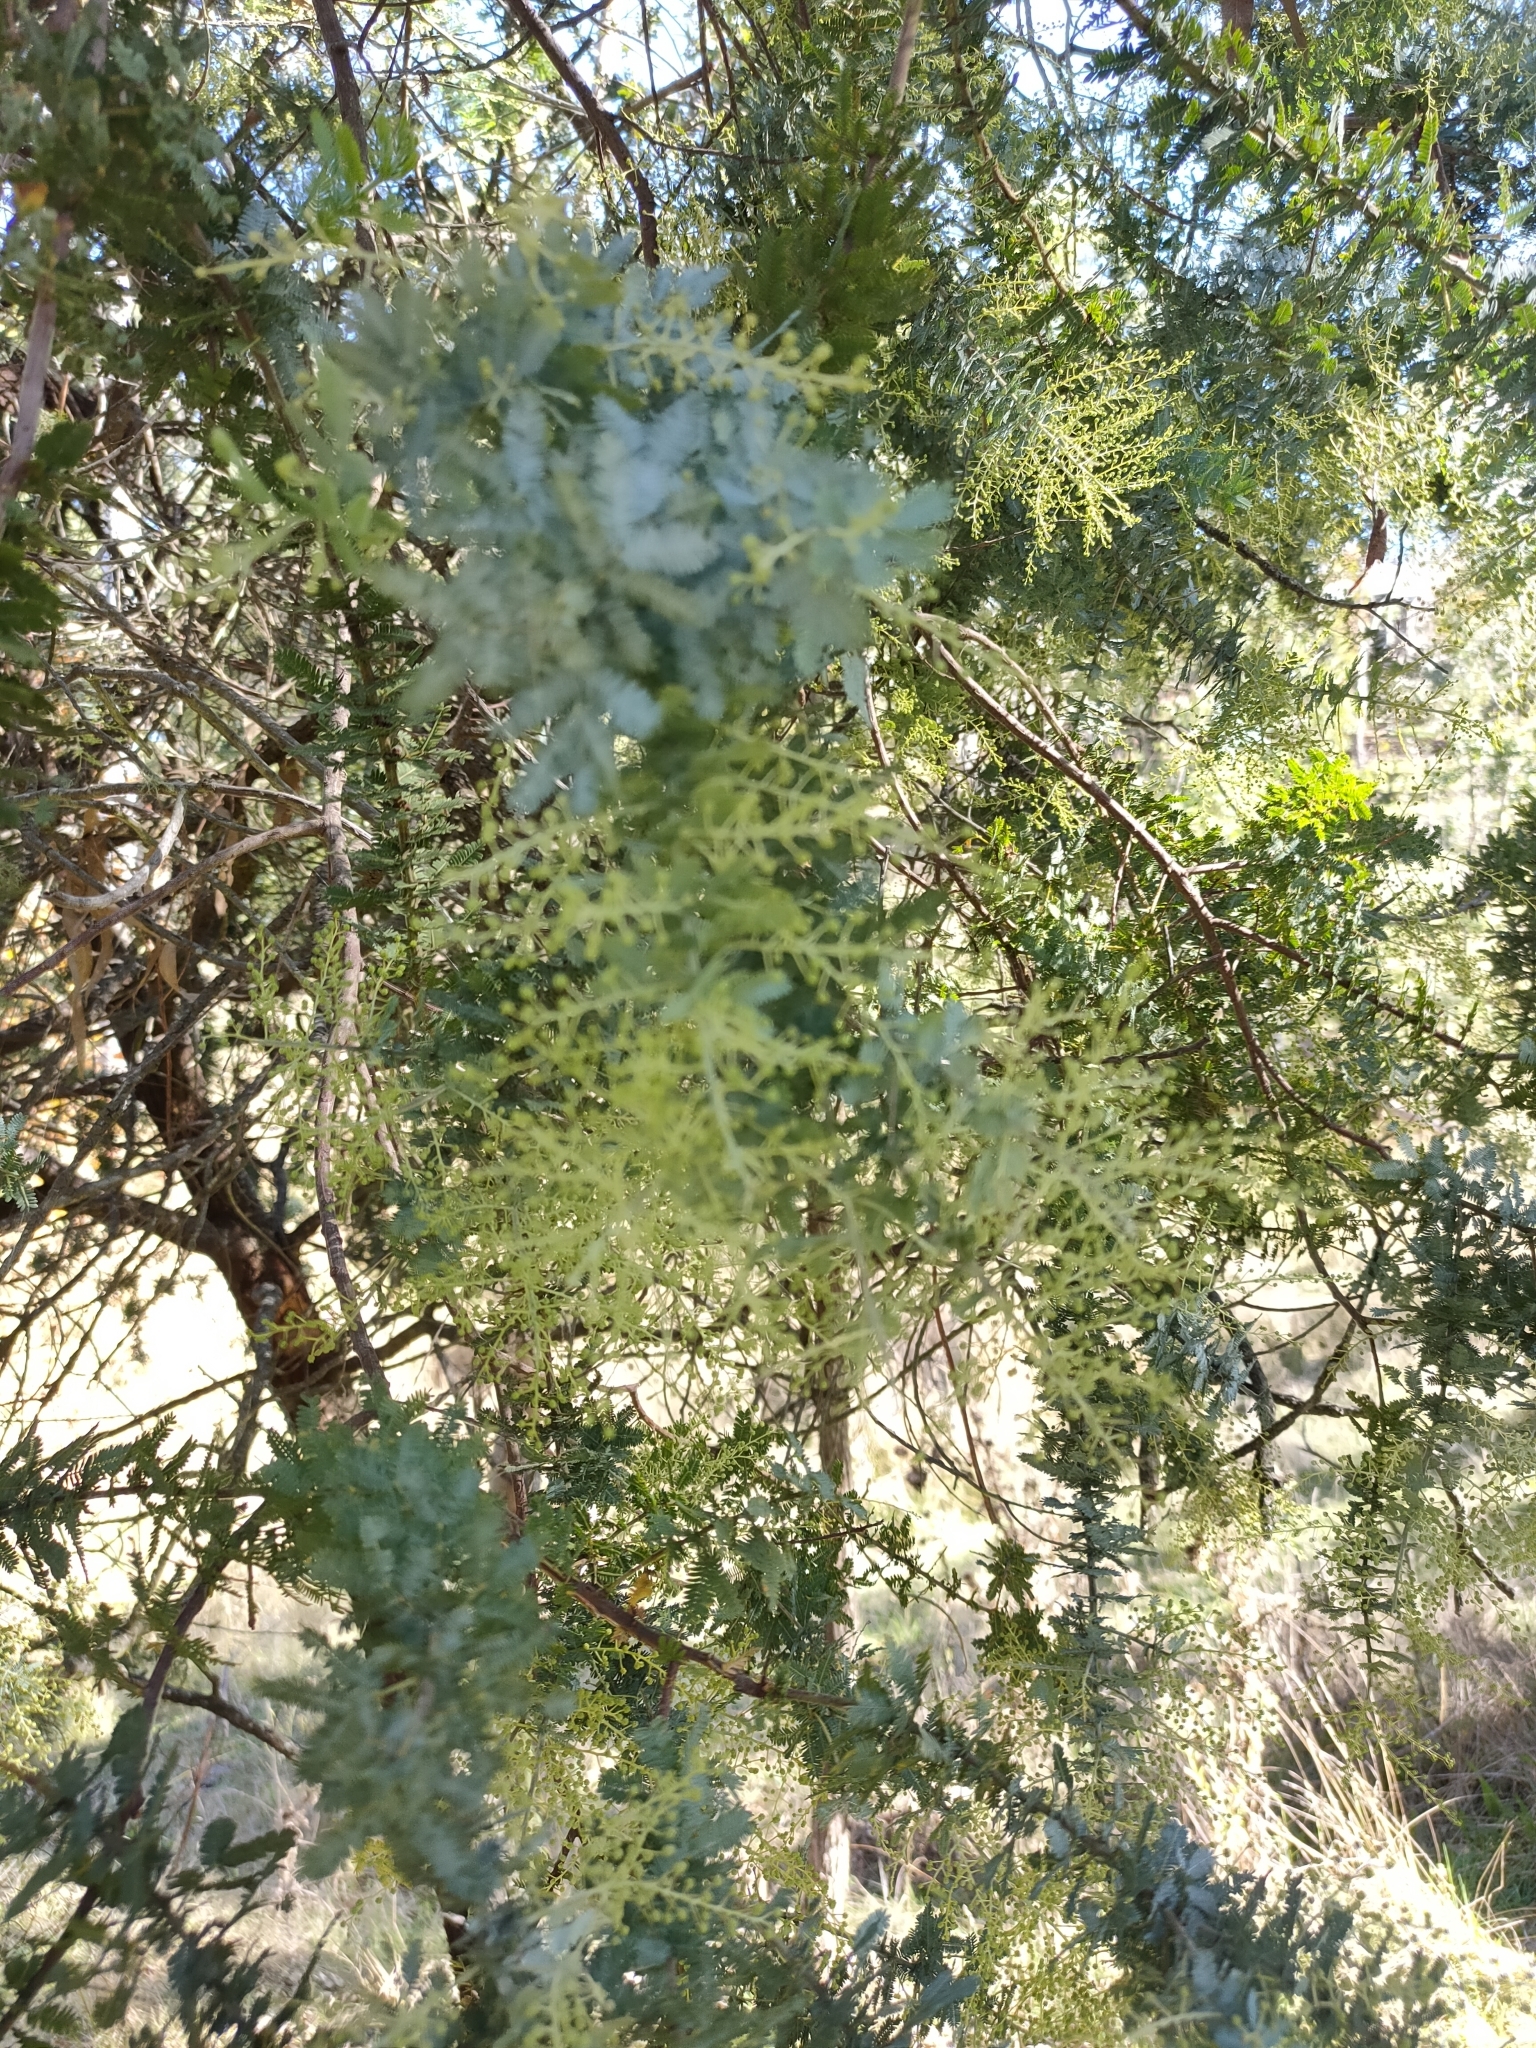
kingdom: Plantae
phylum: Tracheophyta
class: Magnoliopsida
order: Fabales
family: Fabaceae
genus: Acacia
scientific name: Acacia baileyana
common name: Cootamundra wattle
